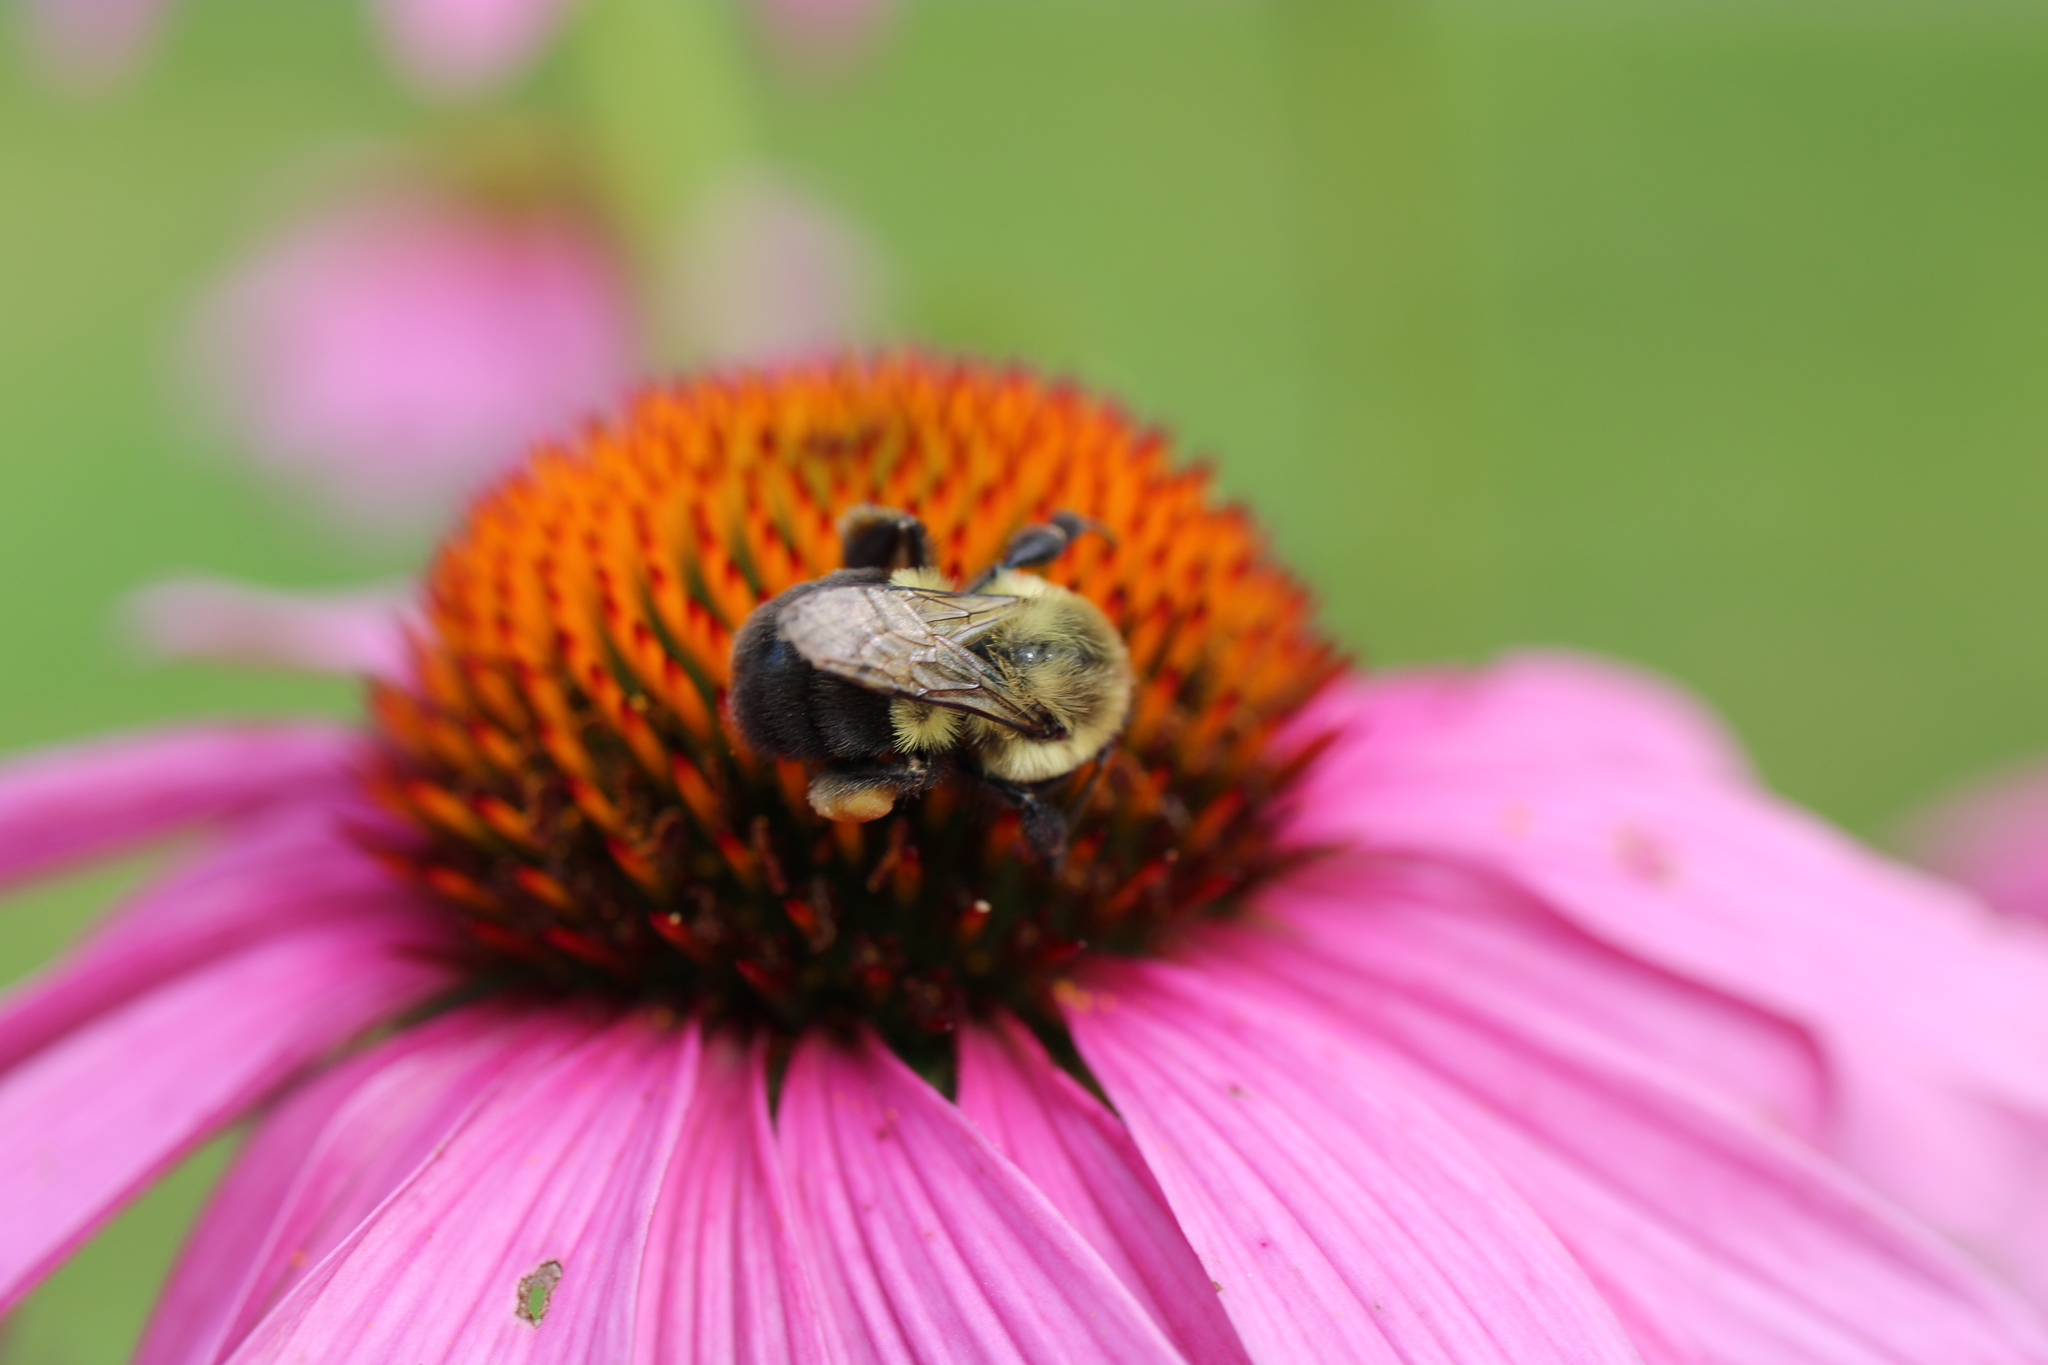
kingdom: Animalia
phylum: Arthropoda
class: Insecta
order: Hymenoptera
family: Apidae
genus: Bombus
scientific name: Bombus impatiens
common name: Common eastern bumble bee
